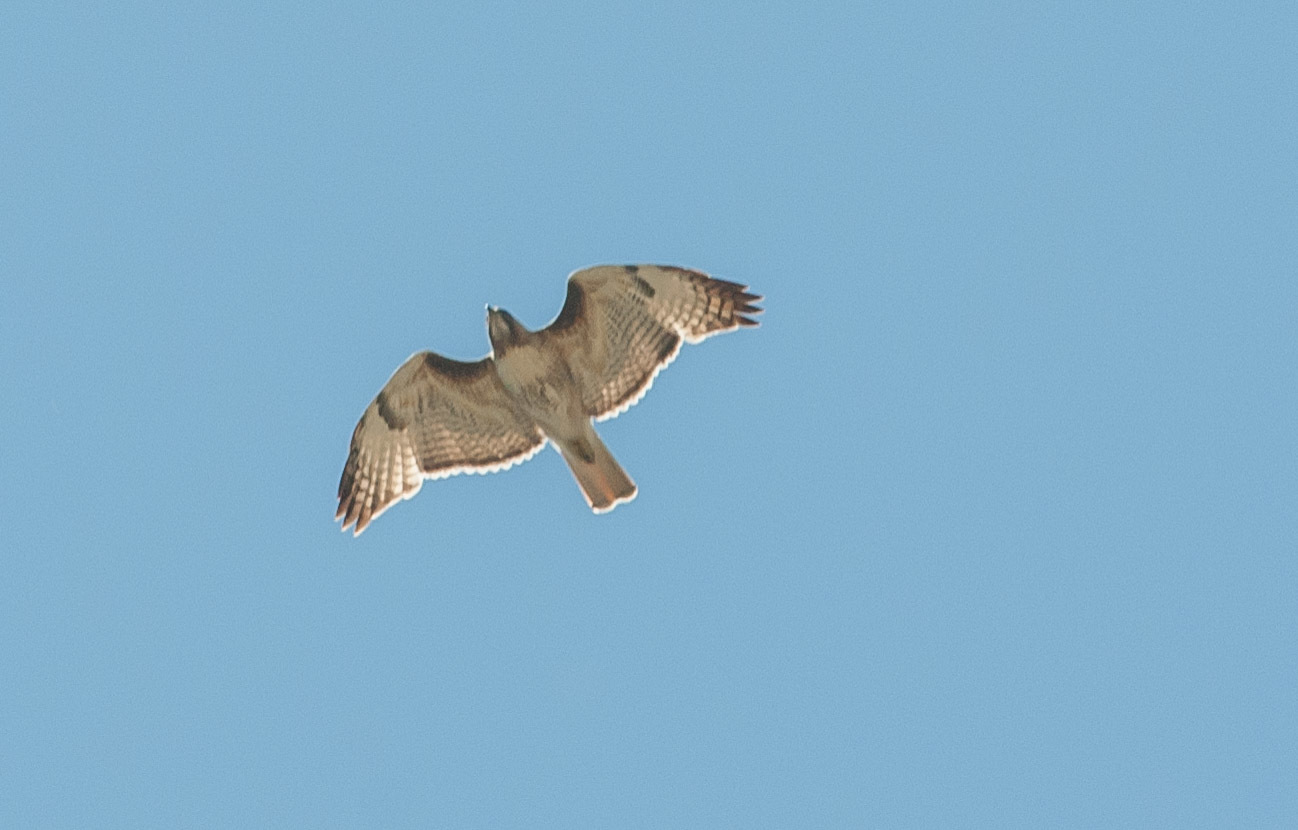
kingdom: Animalia
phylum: Chordata
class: Aves
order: Accipitriformes
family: Accipitridae
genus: Buteo
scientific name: Buteo jamaicensis
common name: Red-tailed hawk
